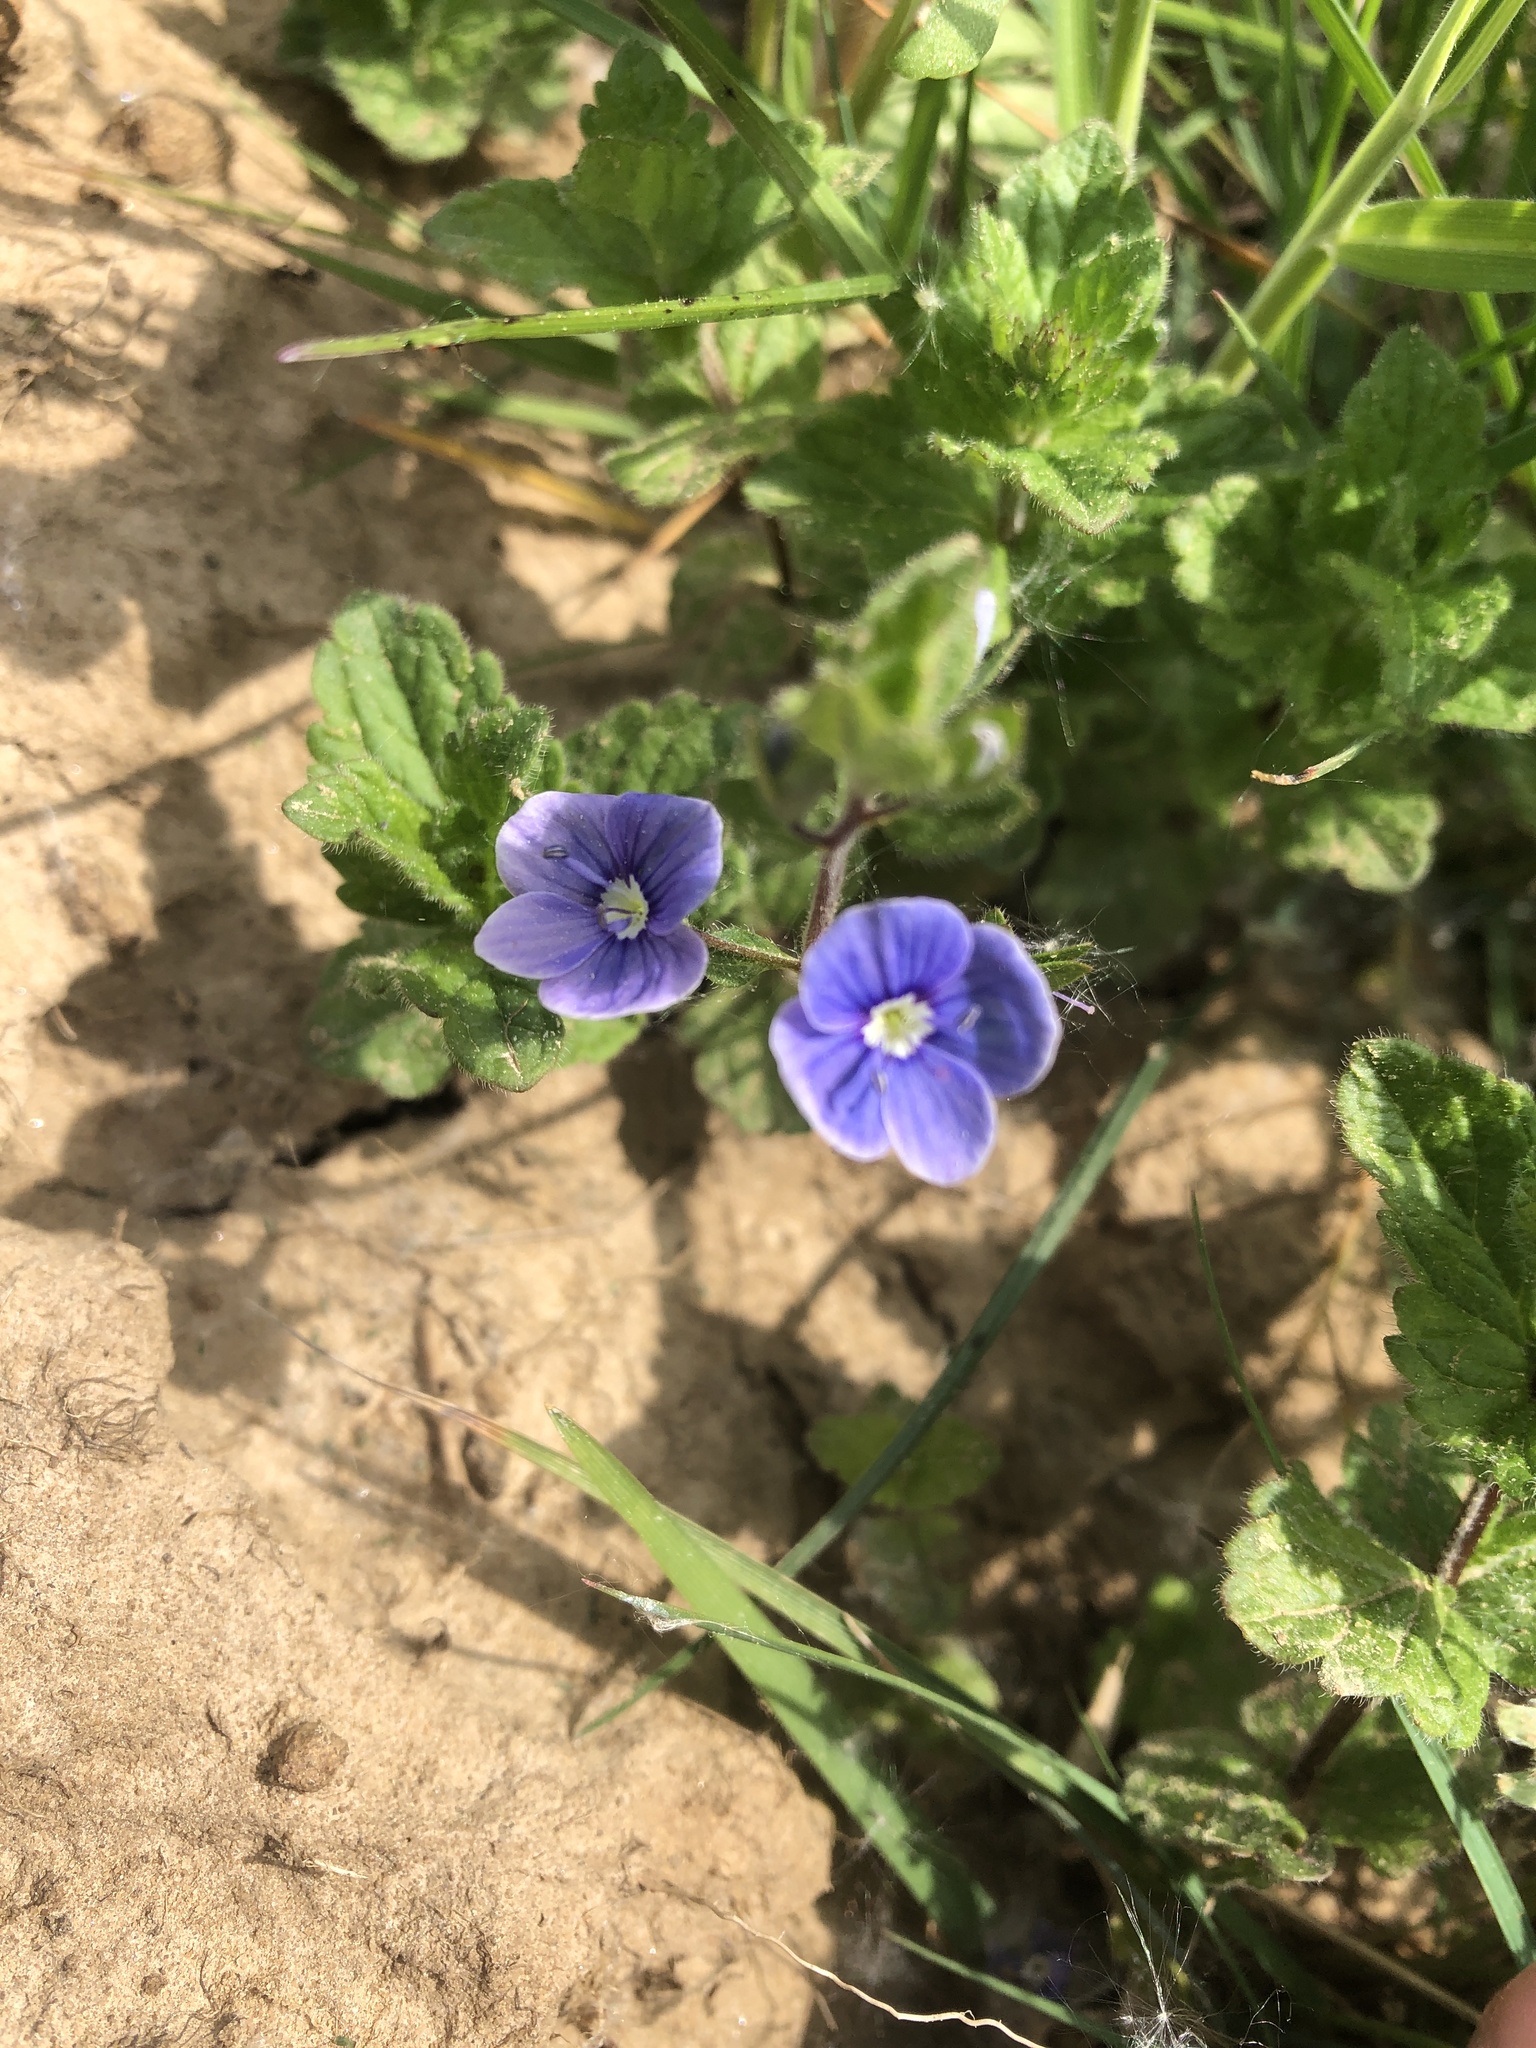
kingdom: Plantae
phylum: Tracheophyta
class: Magnoliopsida
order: Lamiales
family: Plantaginaceae
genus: Veronica
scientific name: Veronica chamaedrys
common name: Germander speedwell
